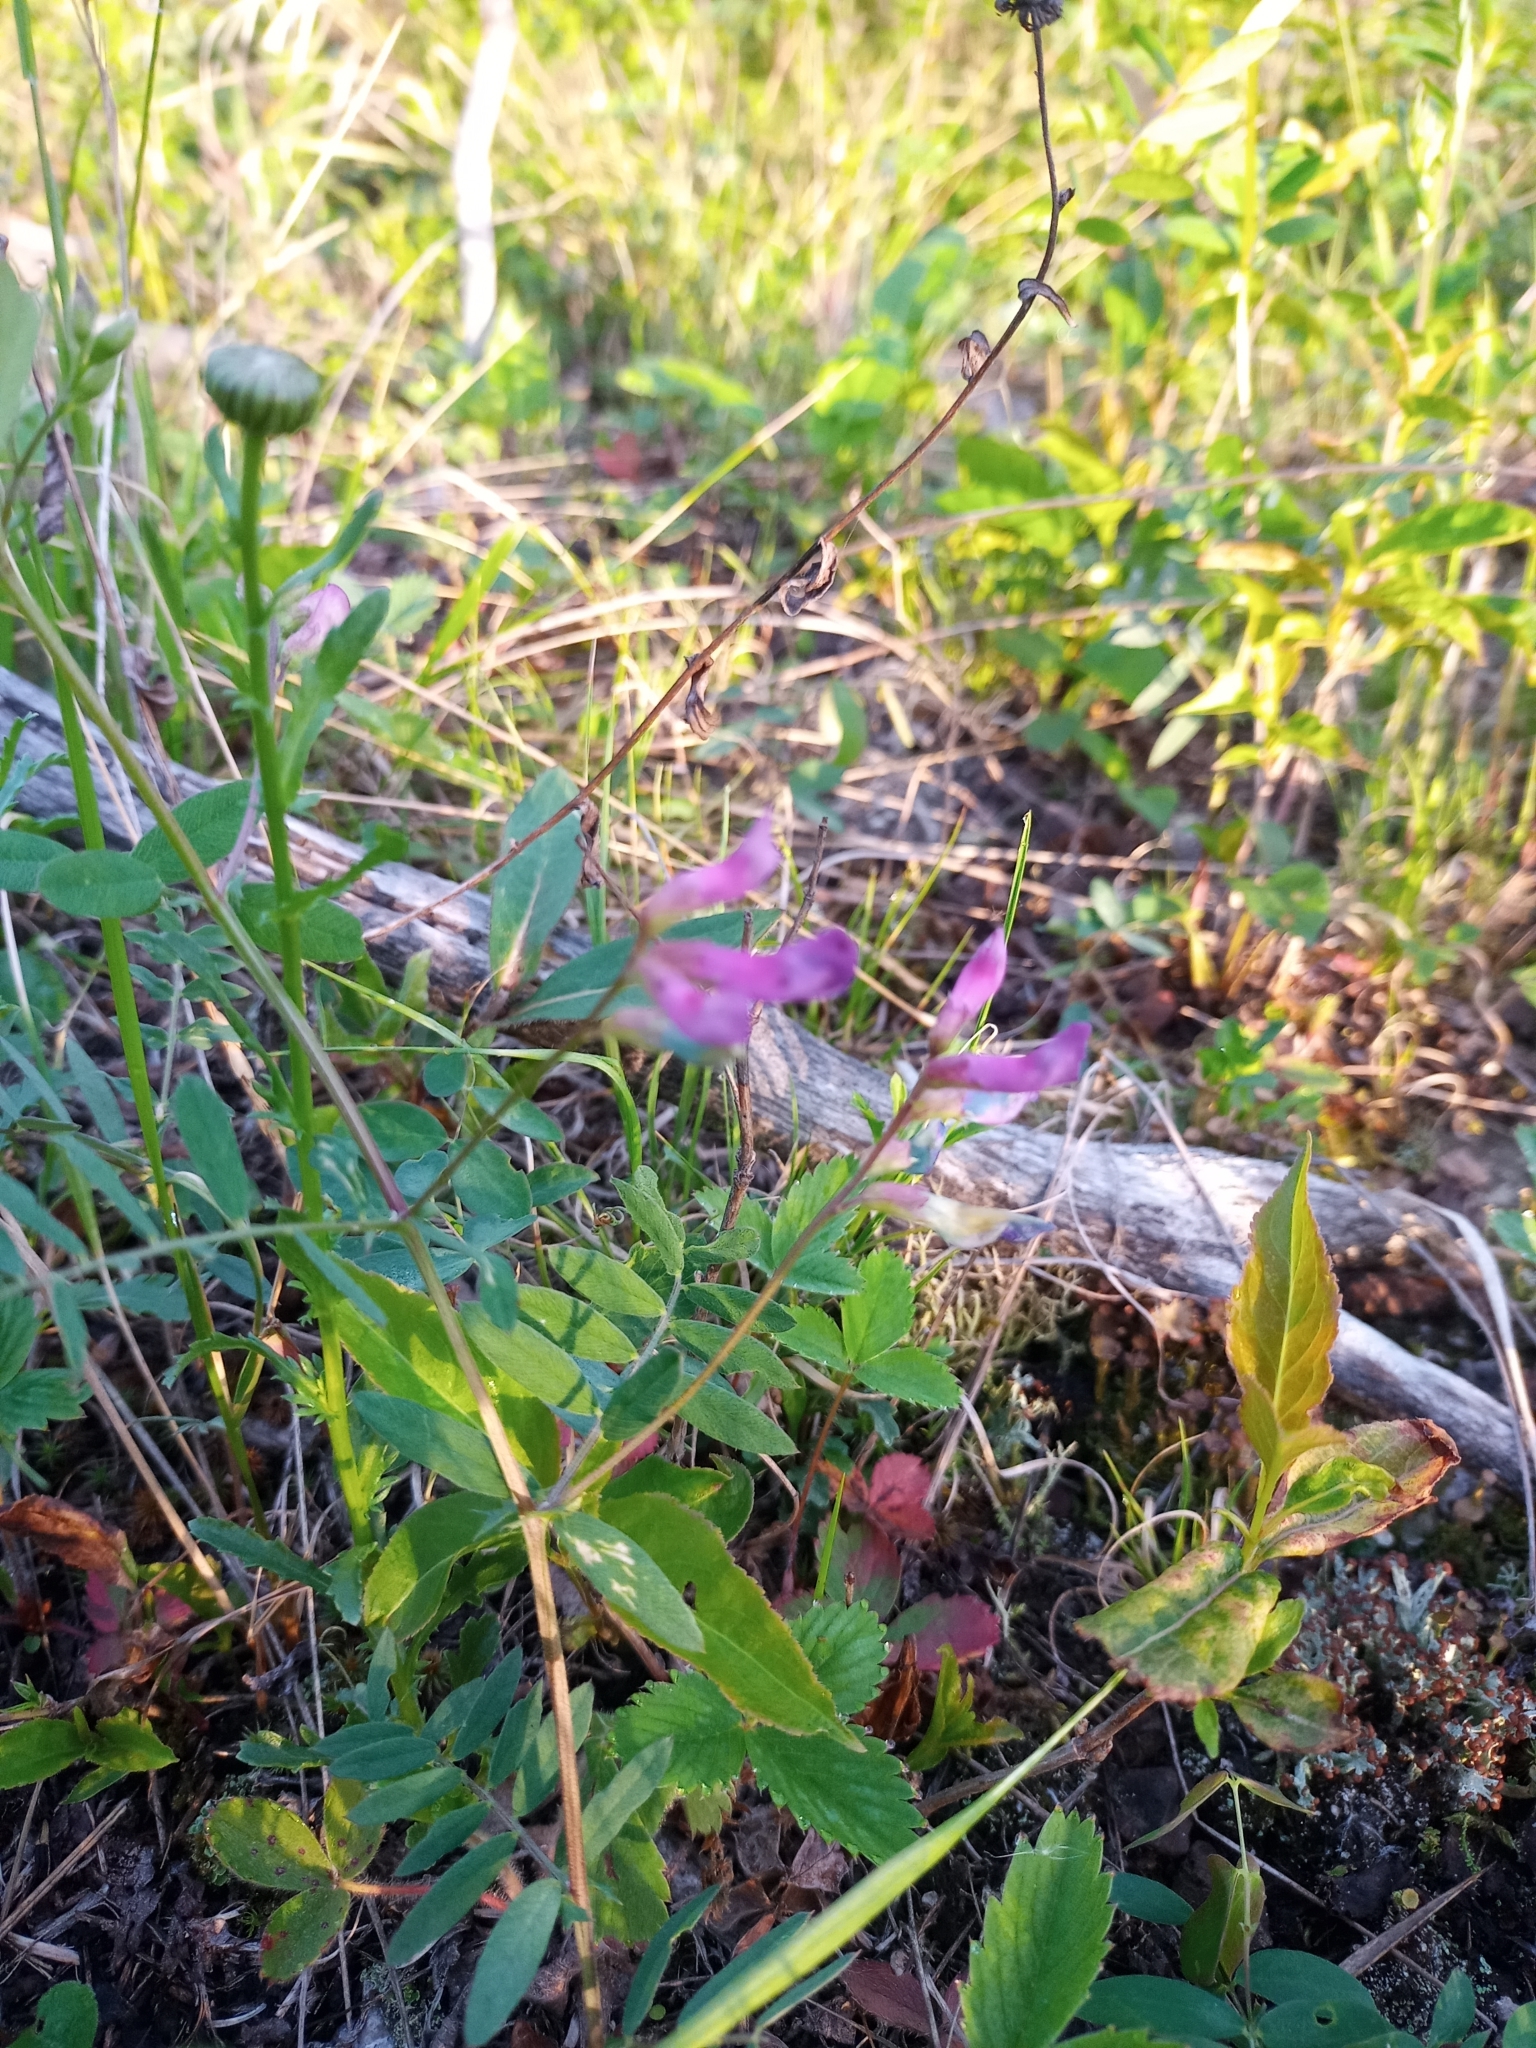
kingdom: Plantae
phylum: Tracheophyta
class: Magnoliopsida
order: Fabales
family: Fabaceae
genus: Vicia
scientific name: Vicia americana
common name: American vetch
